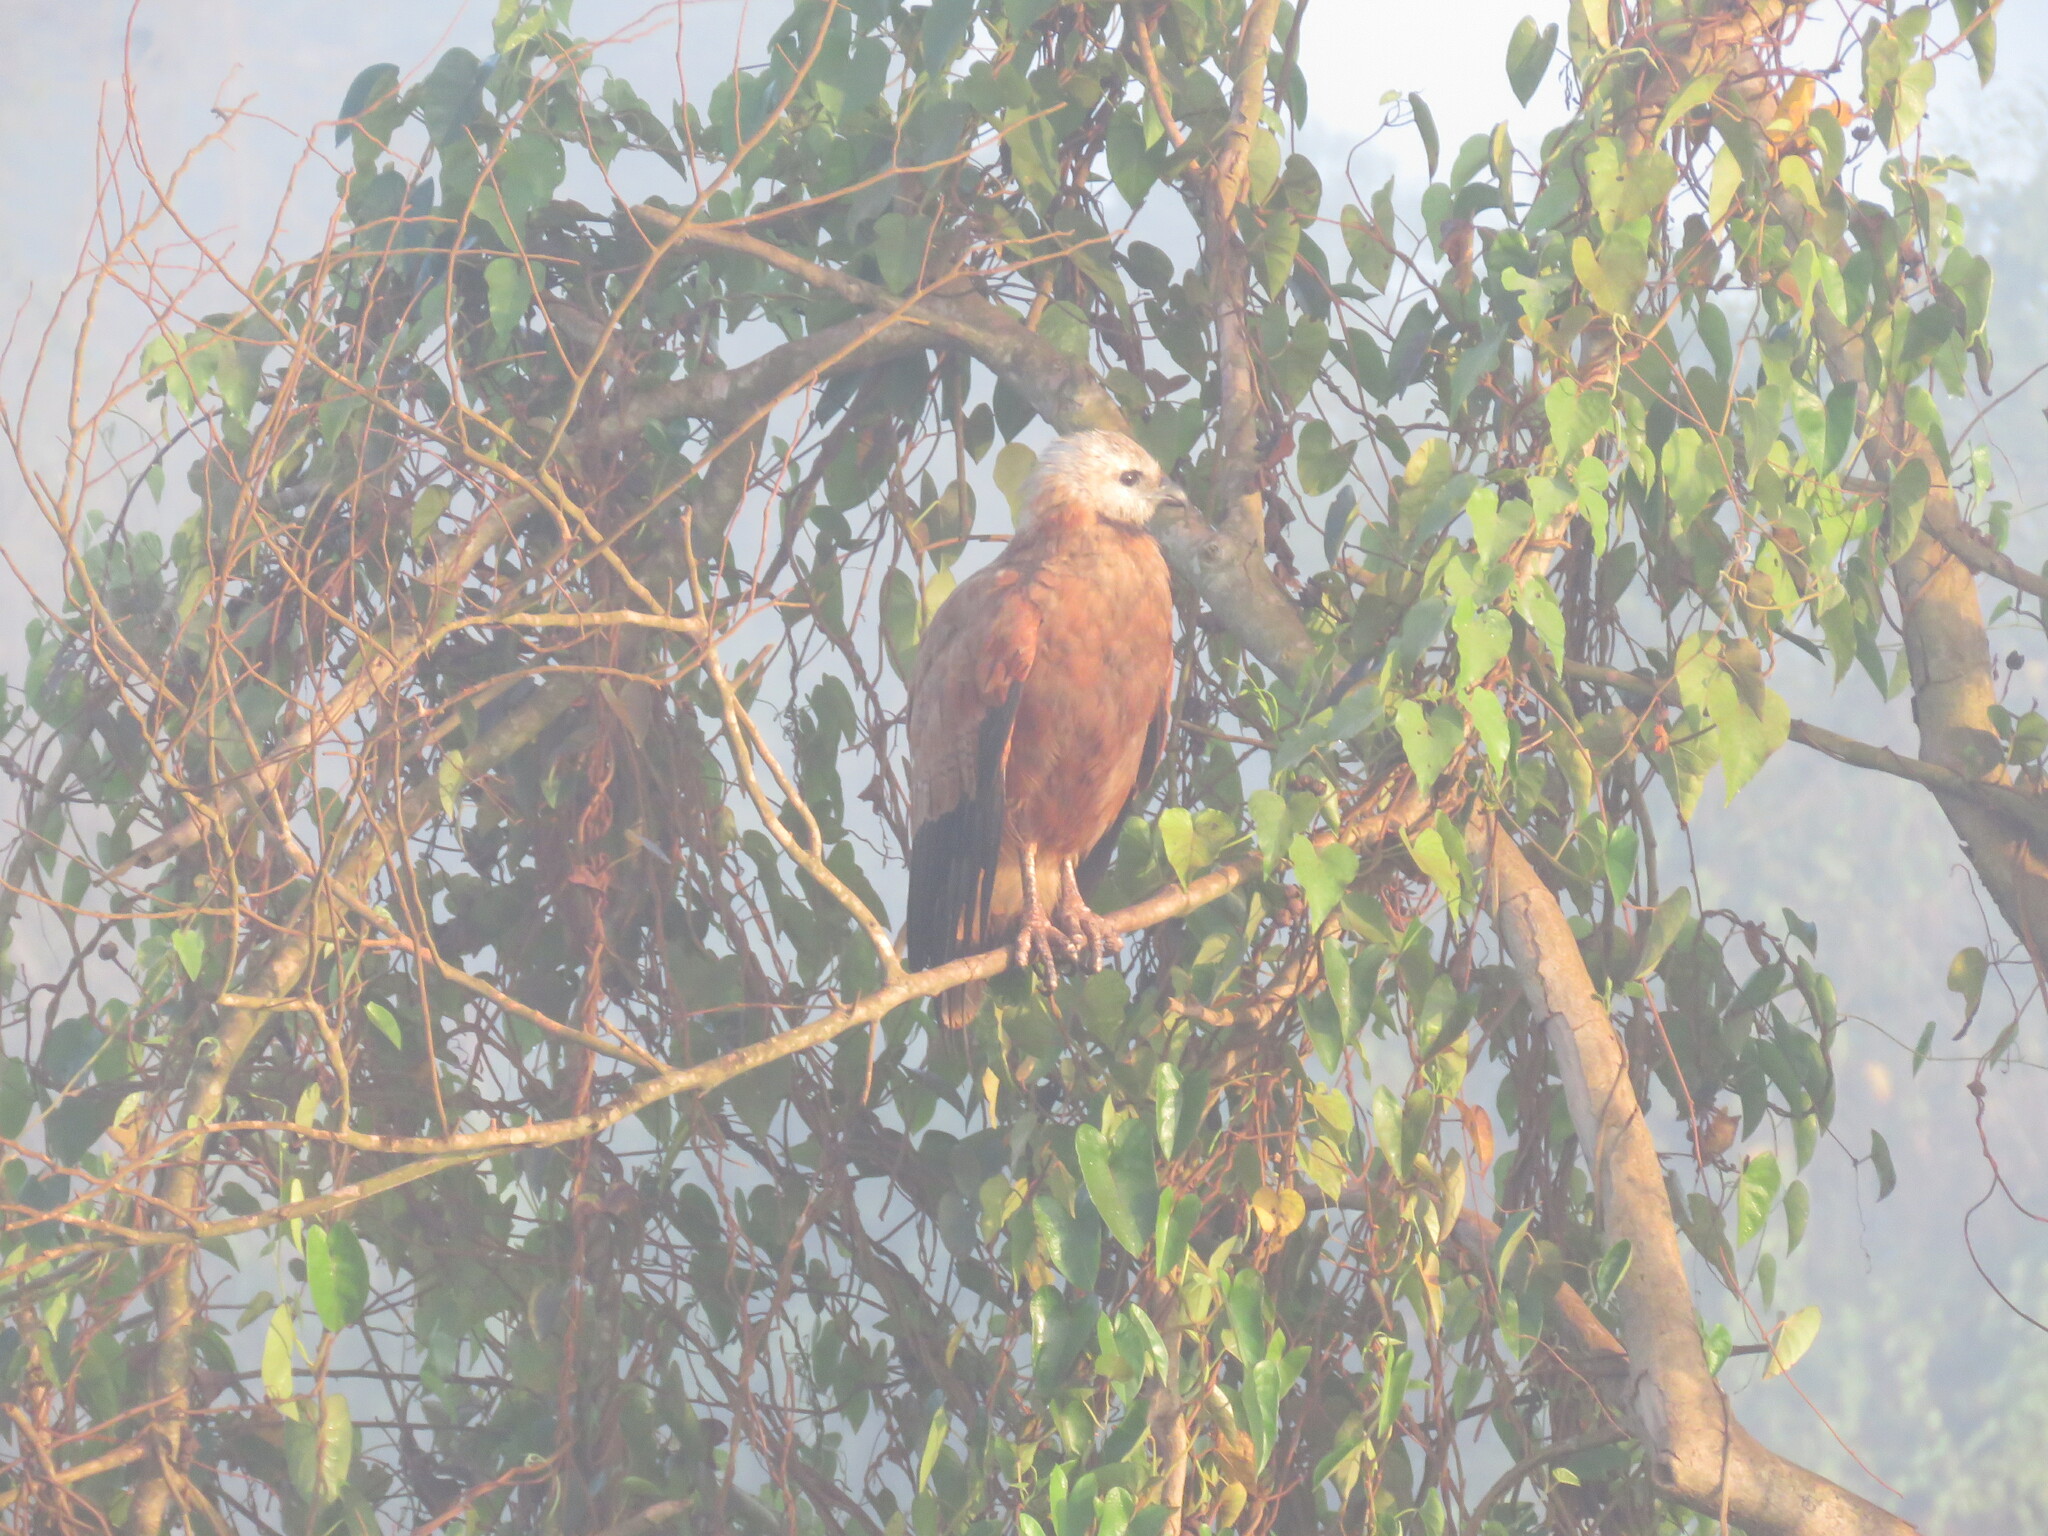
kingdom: Animalia
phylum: Chordata
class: Aves
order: Accipitriformes
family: Accipitridae
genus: Busarellus
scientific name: Busarellus nigricollis
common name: Black-collared hawk
